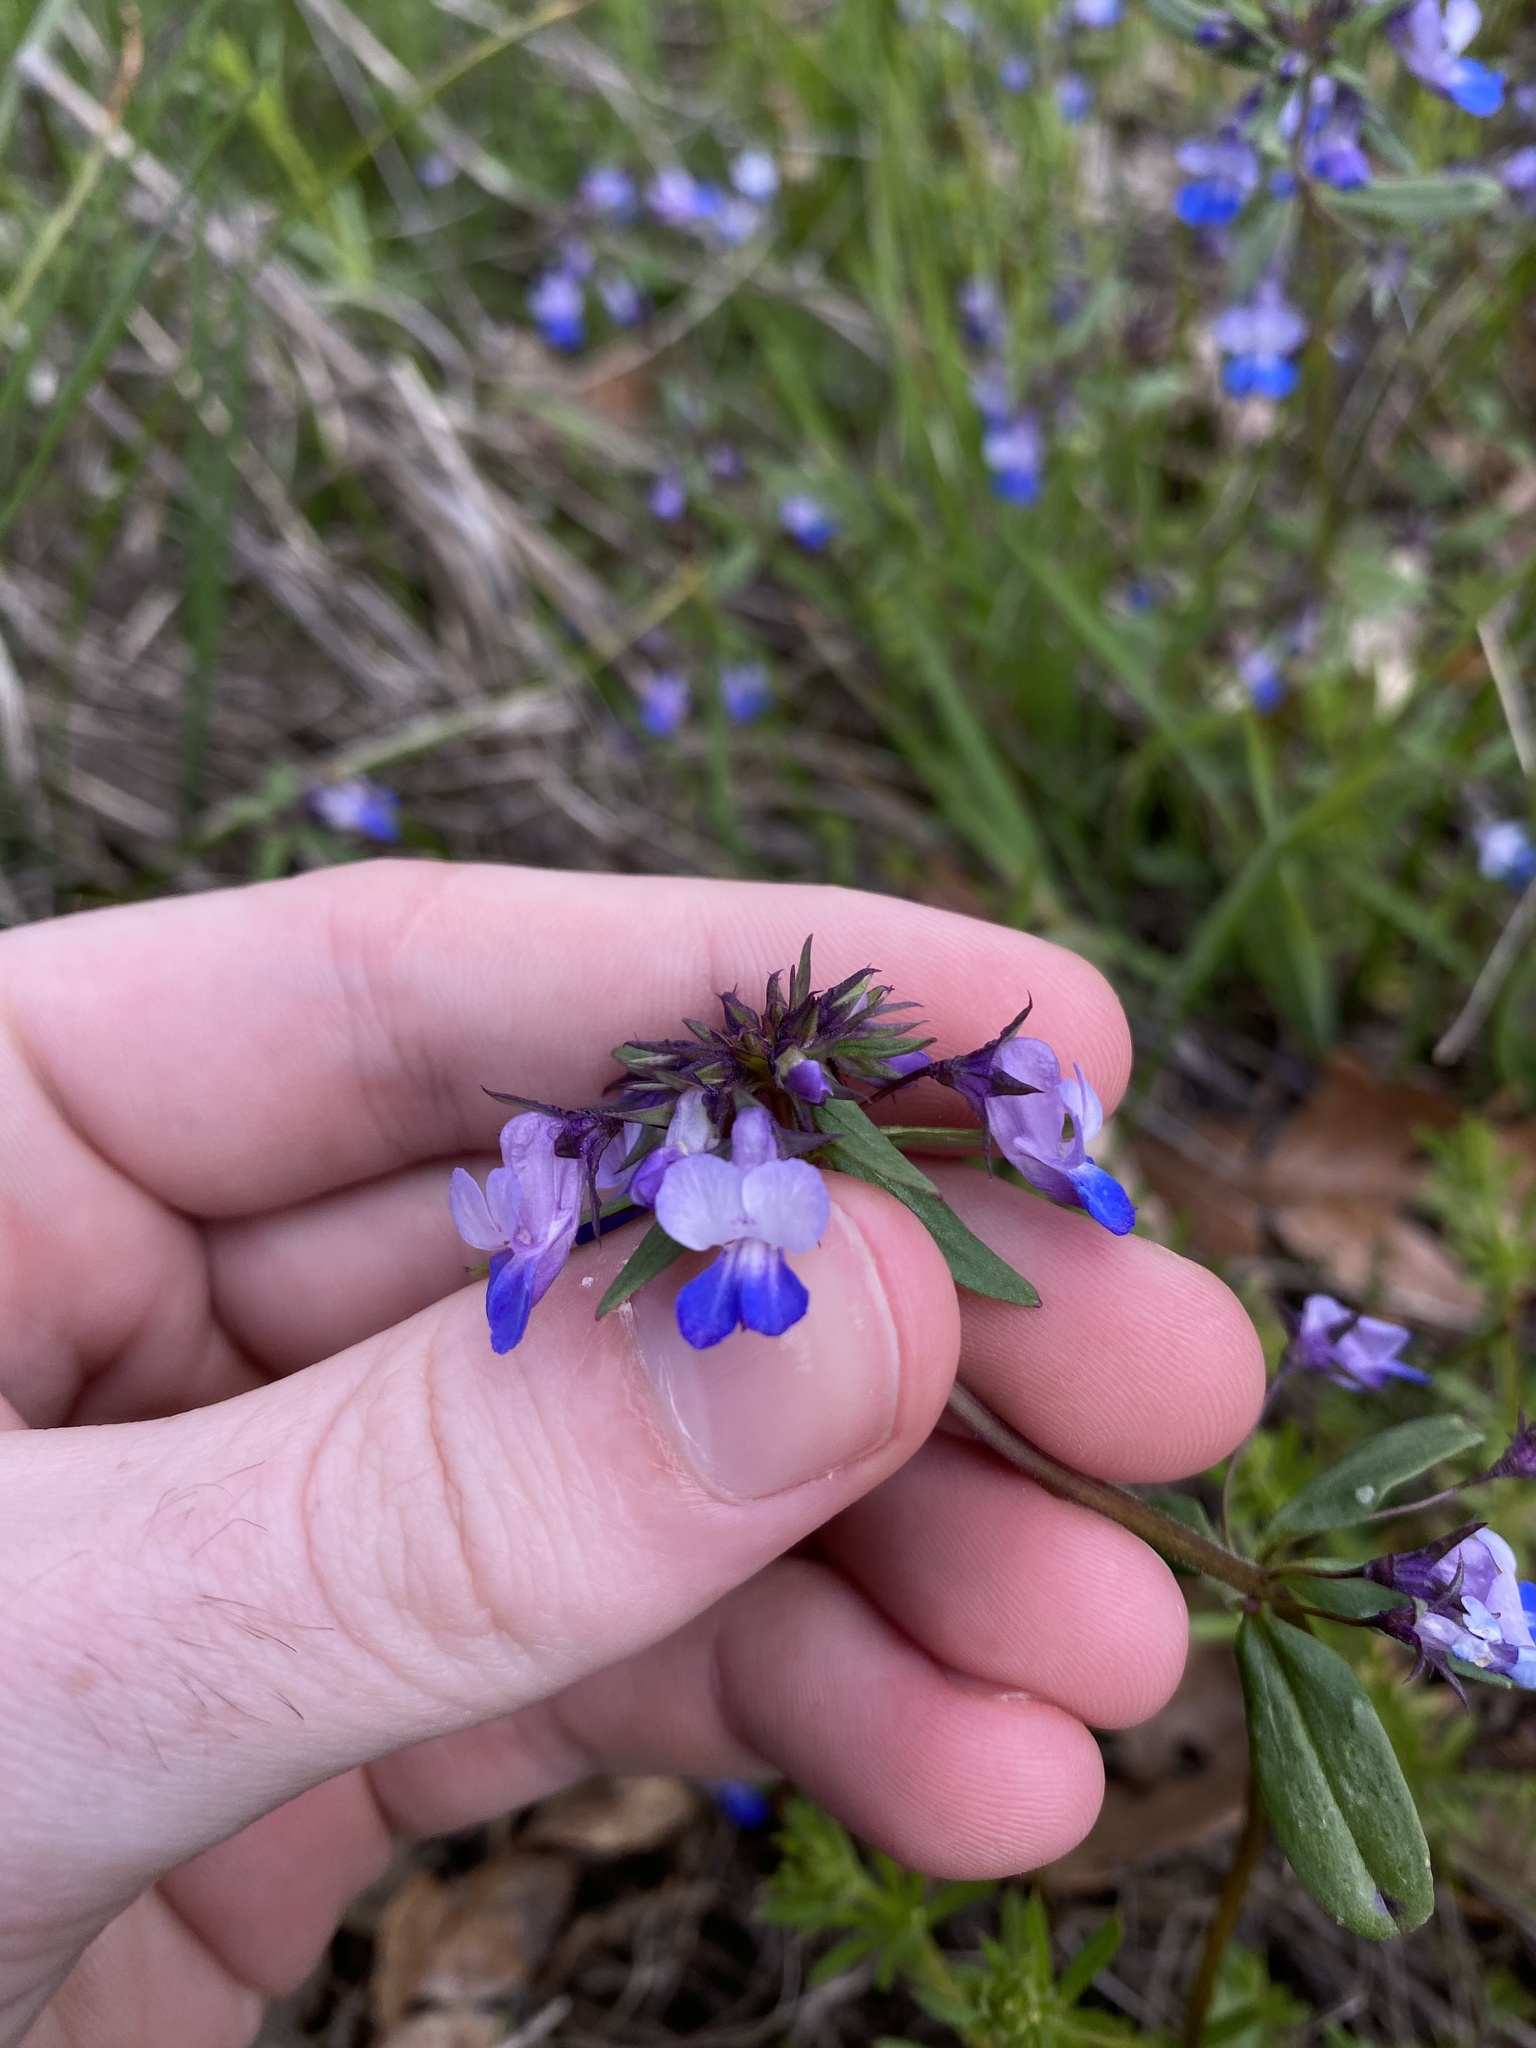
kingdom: Plantae
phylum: Tracheophyta
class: Magnoliopsida
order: Lamiales
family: Plantaginaceae
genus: Collinsia
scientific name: Collinsia grandiflora
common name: Large-flower blue-eyed-mary
